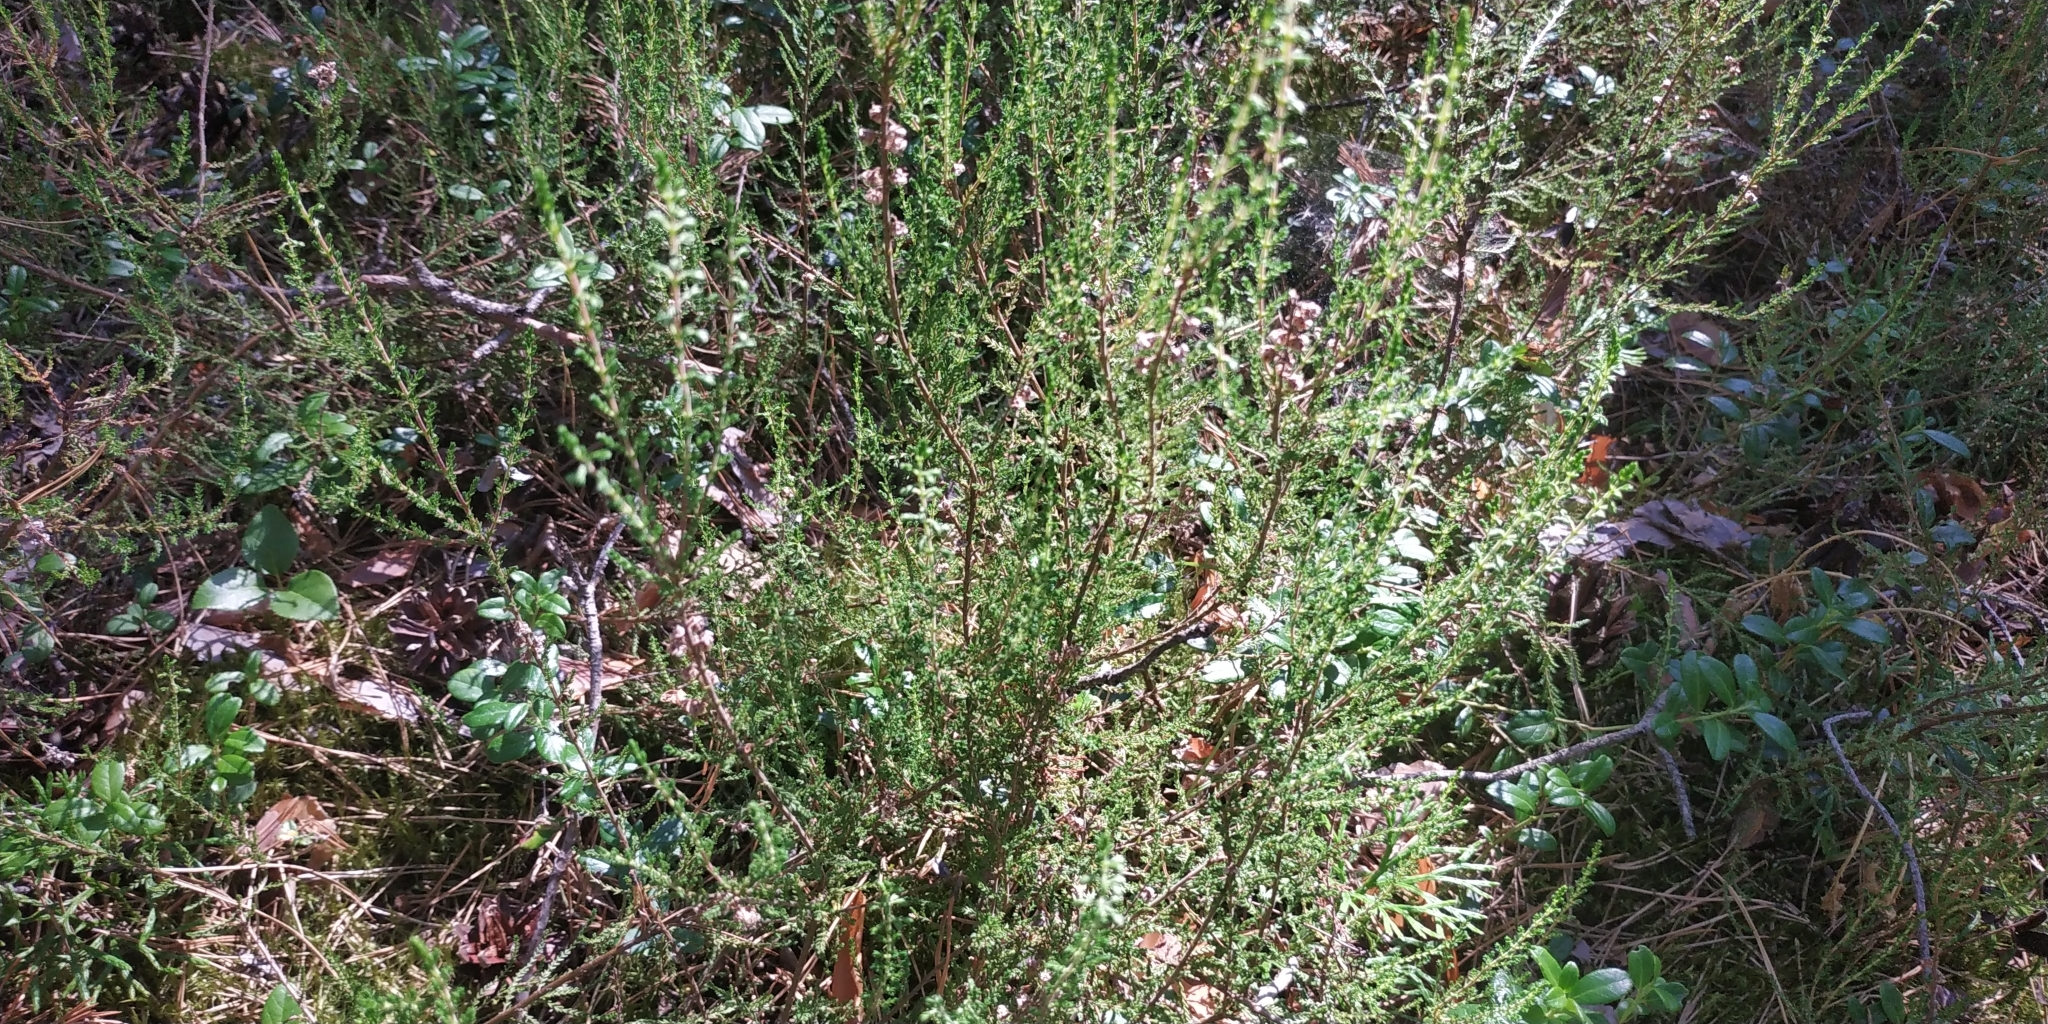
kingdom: Plantae
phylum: Tracheophyta
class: Magnoliopsida
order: Ericales
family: Ericaceae
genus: Calluna
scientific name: Calluna vulgaris
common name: Heather
